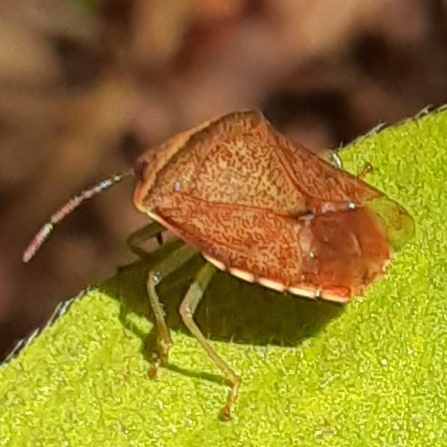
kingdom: Animalia
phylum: Arthropoda
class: Insecta
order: Hemiptera
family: Pentatomidae
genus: Banasa
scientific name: Banasa calva
